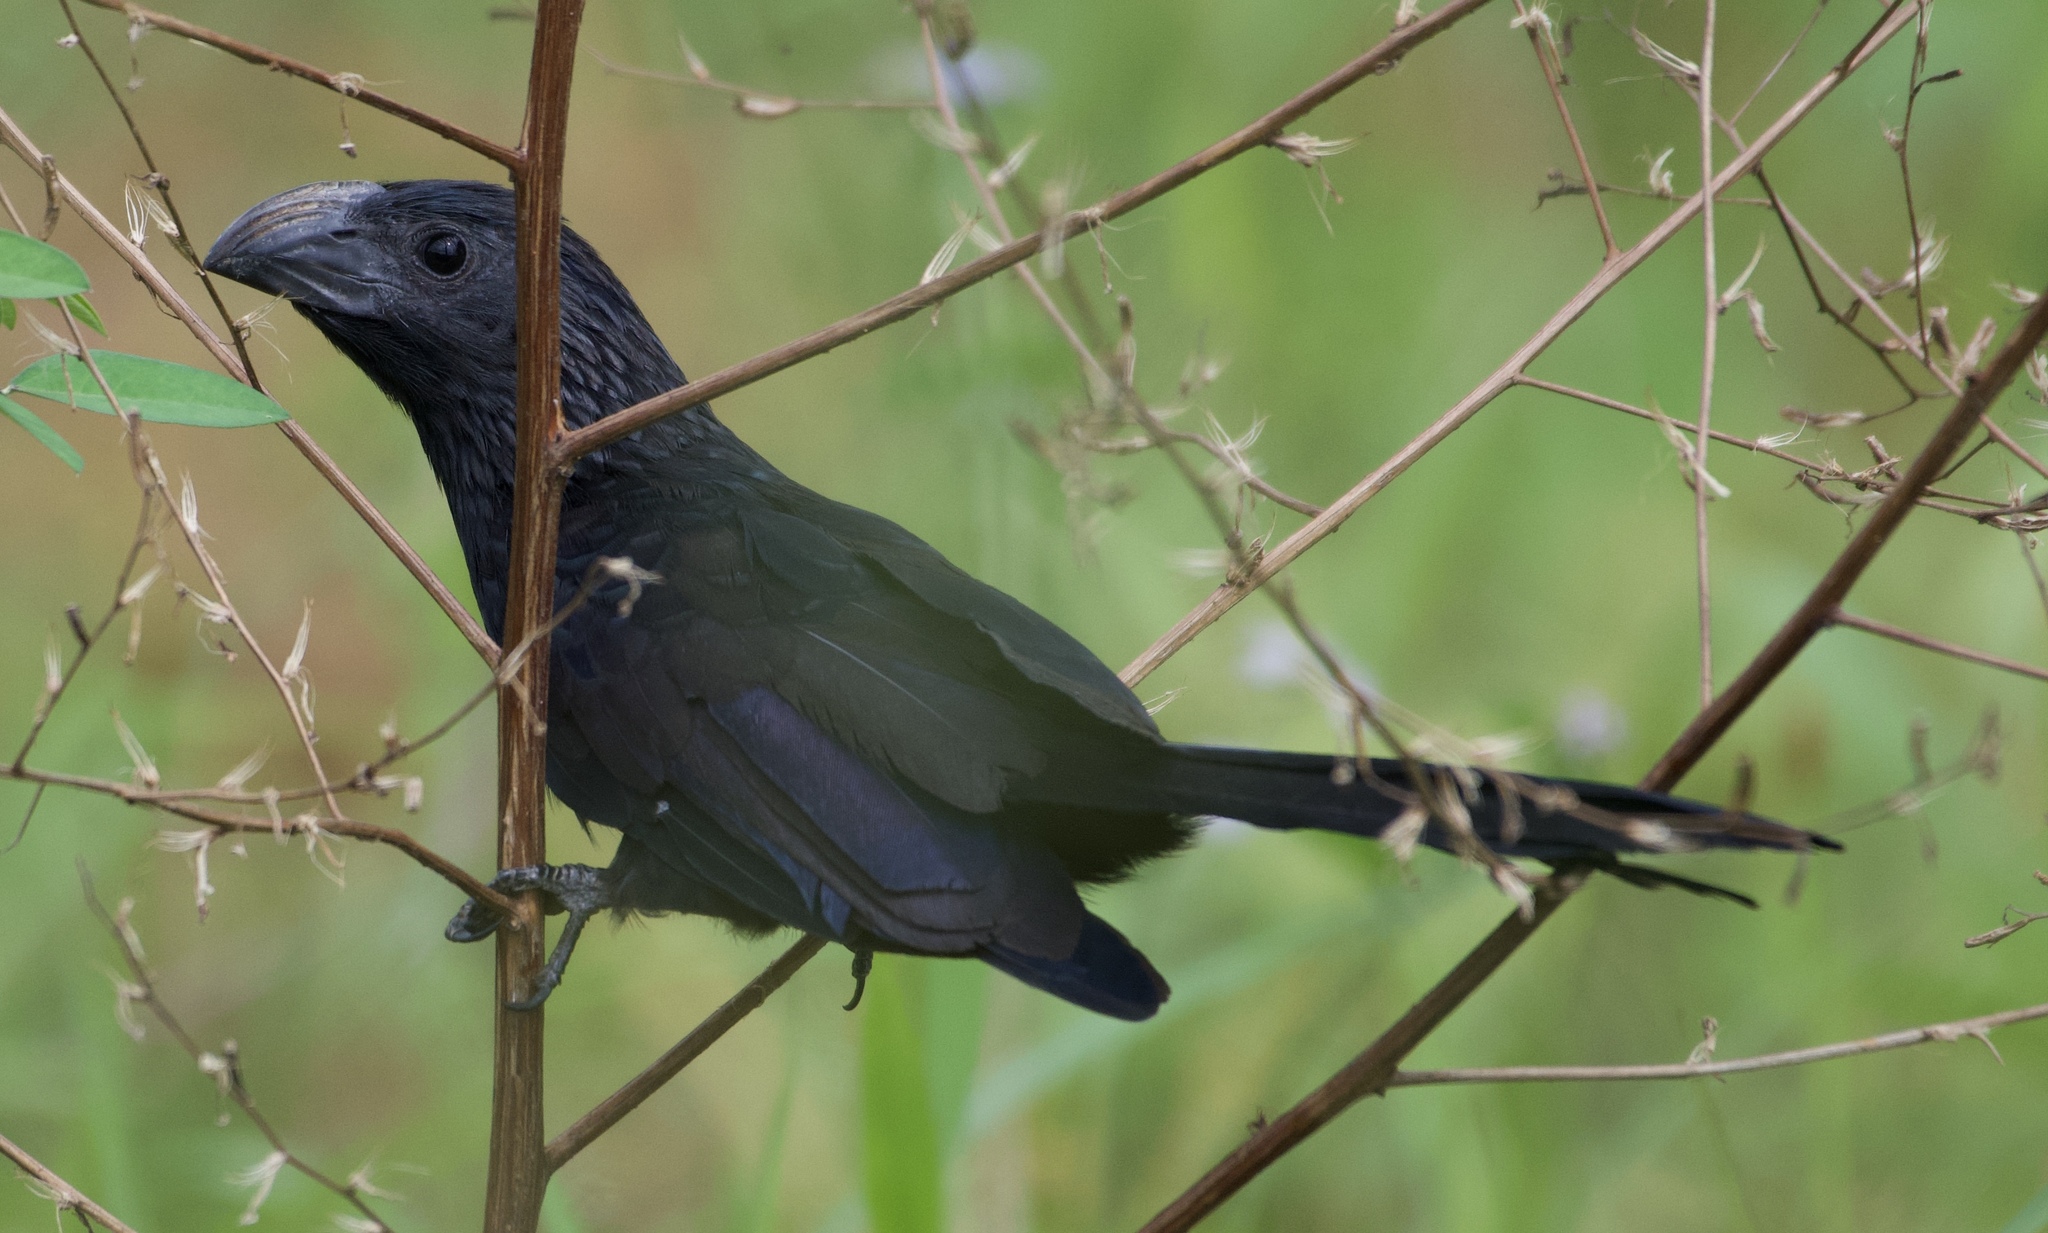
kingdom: Animalia
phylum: Chordata
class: Aves
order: Cuculiformes
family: Cuculidae
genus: Crotophaga
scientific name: Crotophaga sulcirostris
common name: Groove-billed ani
